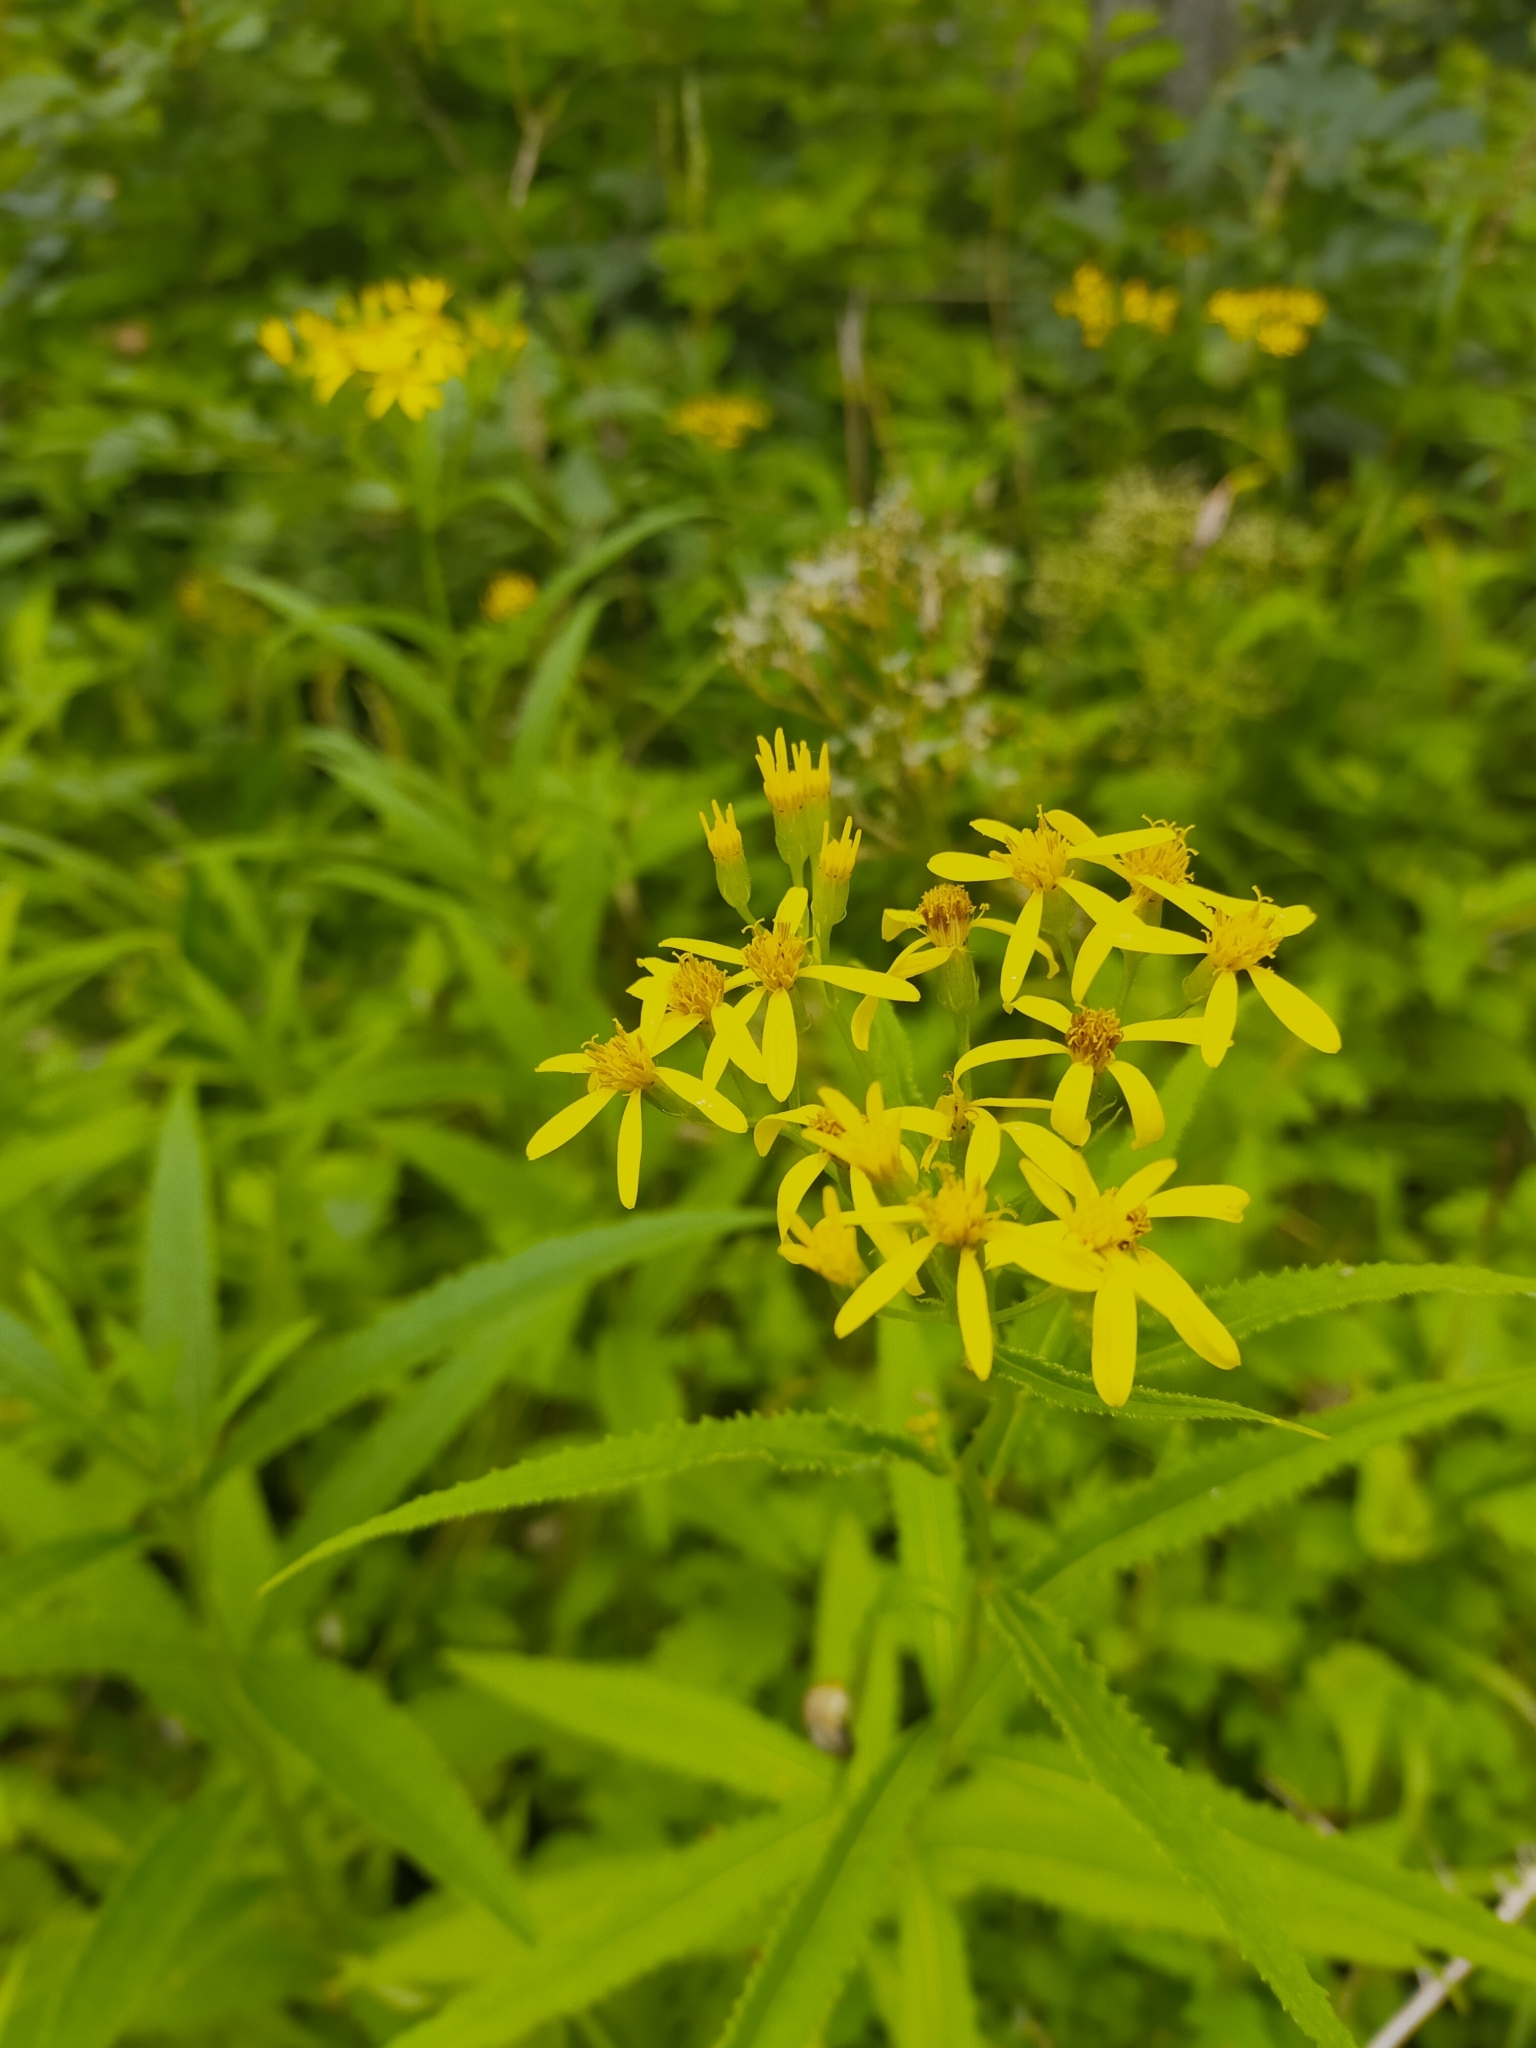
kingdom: Plantae
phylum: Tracheophyta
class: Magnoliopsida
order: Asterales
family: Asteraceae
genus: Jacobaea
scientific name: Jacobaea litvinovii
